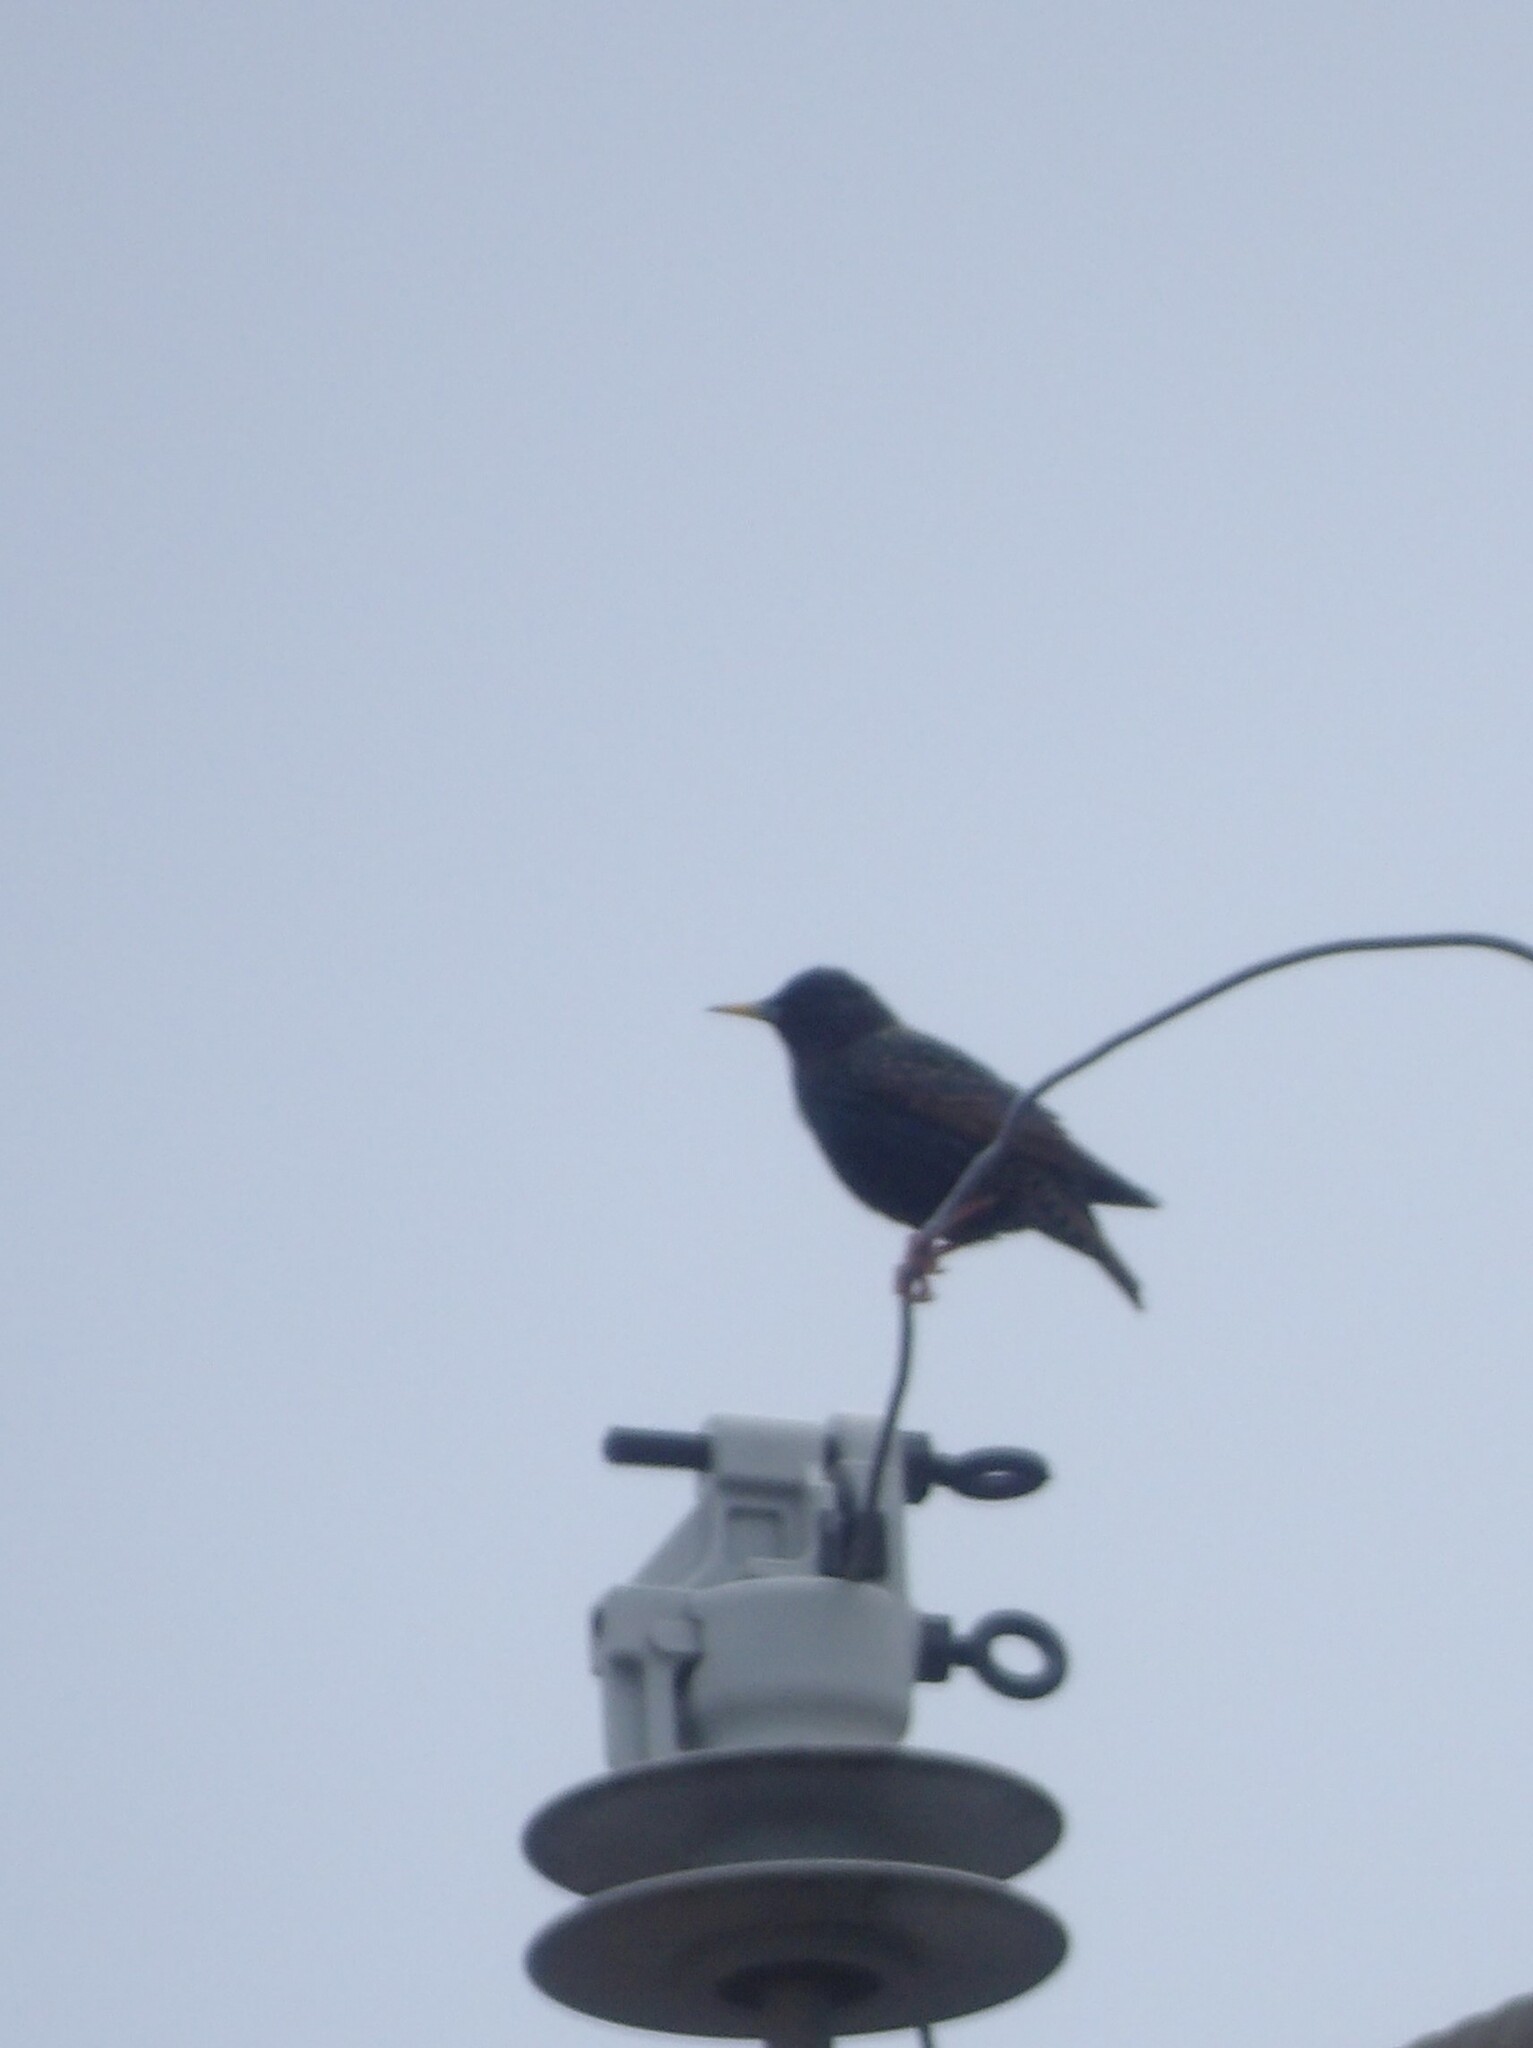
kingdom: Animalia
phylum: Chordata
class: Aves
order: Passeriformes
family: Sturnidae
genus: Sturnus
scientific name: Sturnus vulgaris
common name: Common starling
